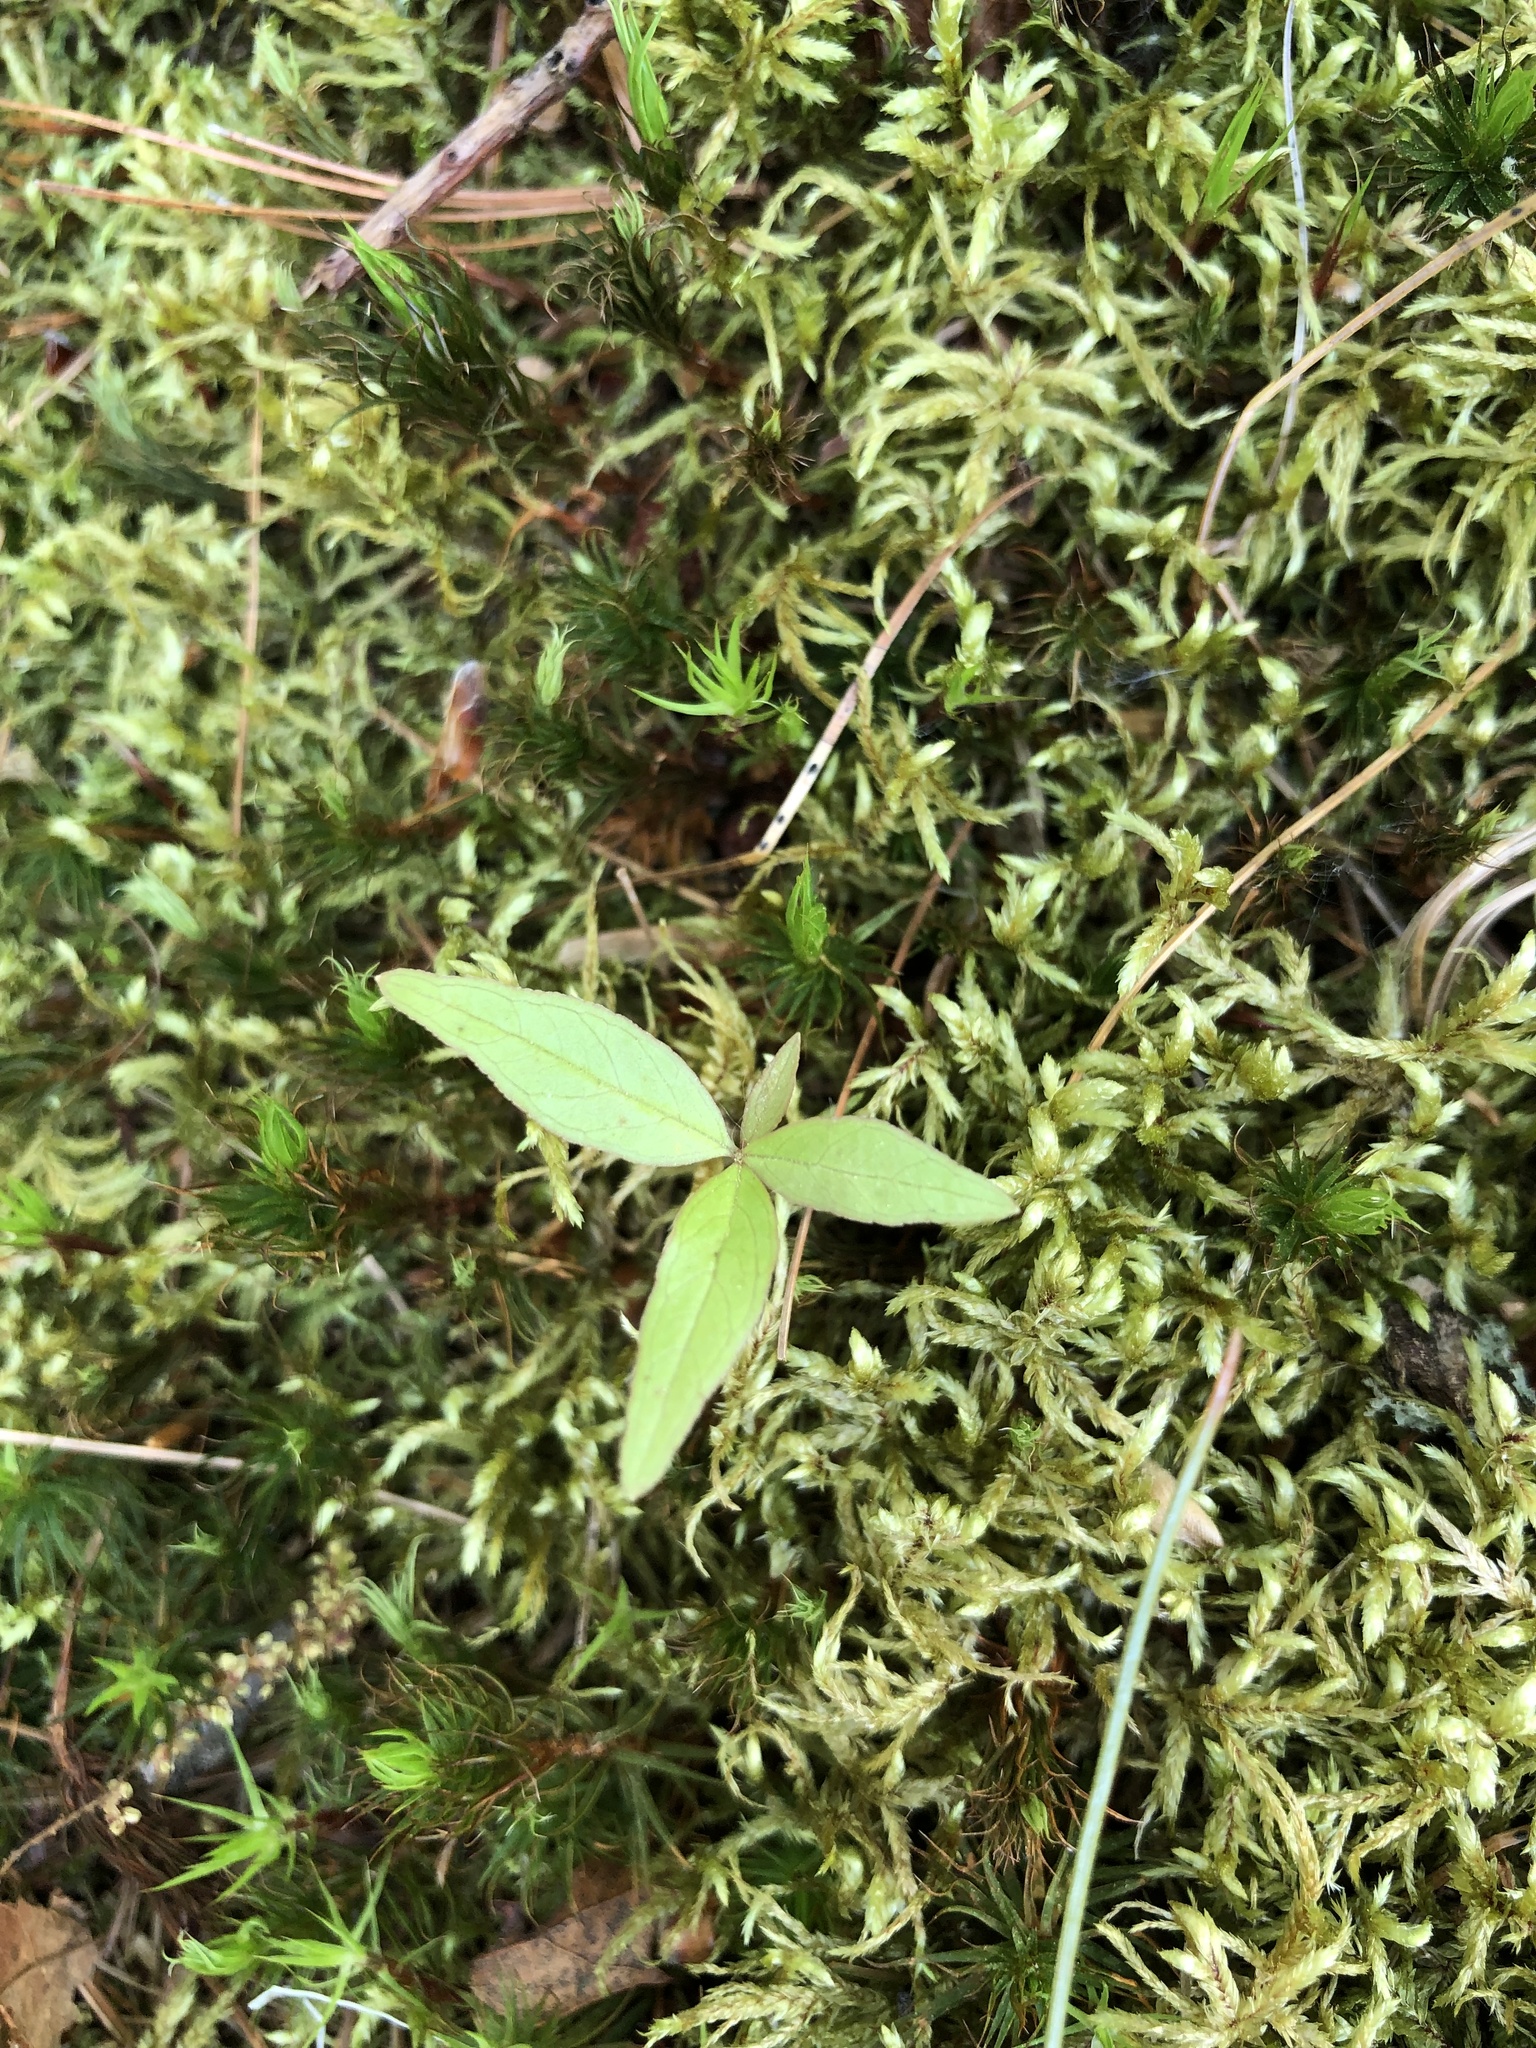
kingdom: Plantae
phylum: Tracheophyta
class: Magnoliopsida
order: Ericales
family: Primulaceae
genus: Lysimachia
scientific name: Lysimachia borealis
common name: American starflower
